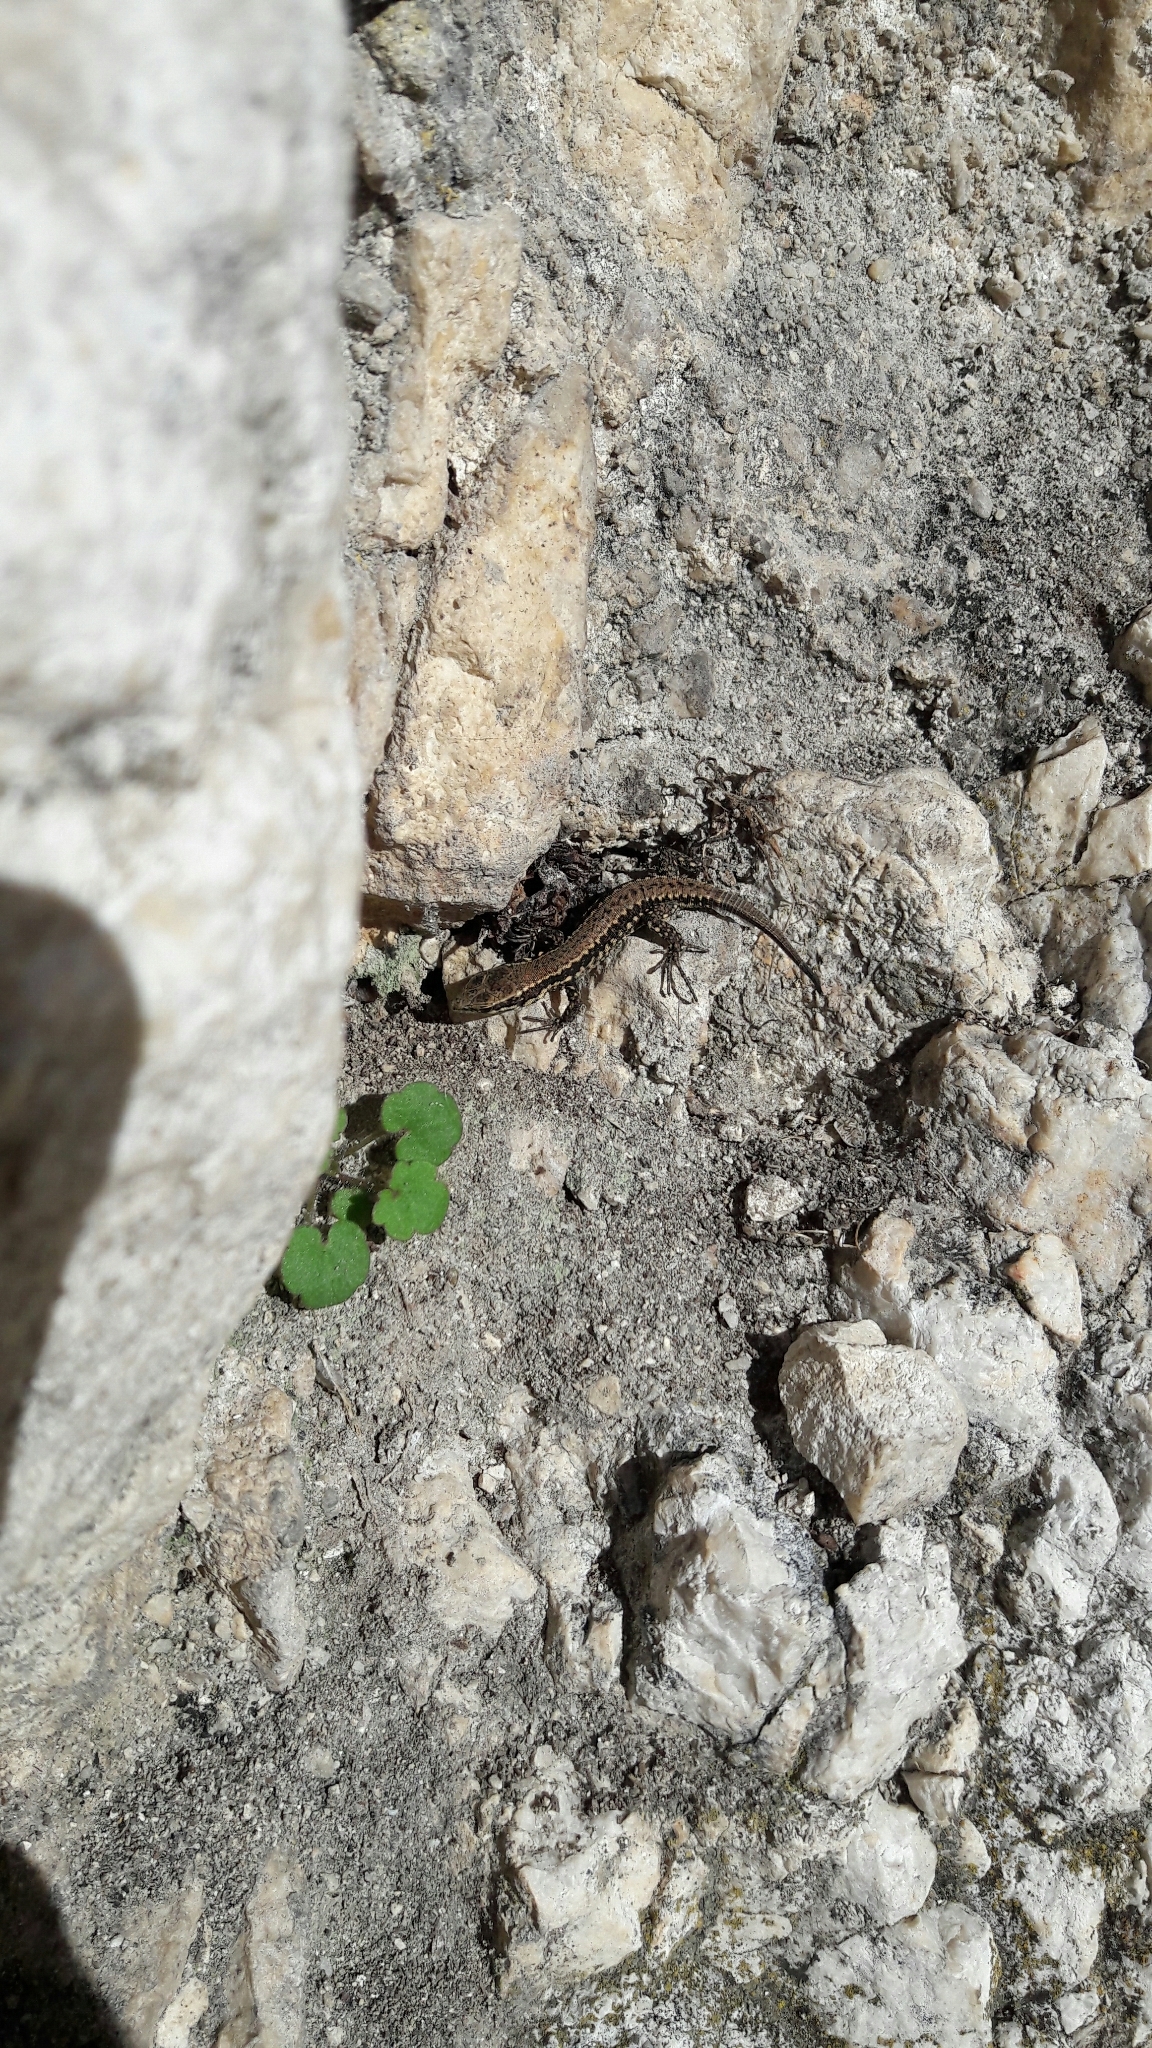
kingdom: Animalia
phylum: Chordata
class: Squamata
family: Lacertidae
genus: Podarcis
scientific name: Podarcis muralis
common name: Common wall lizard
